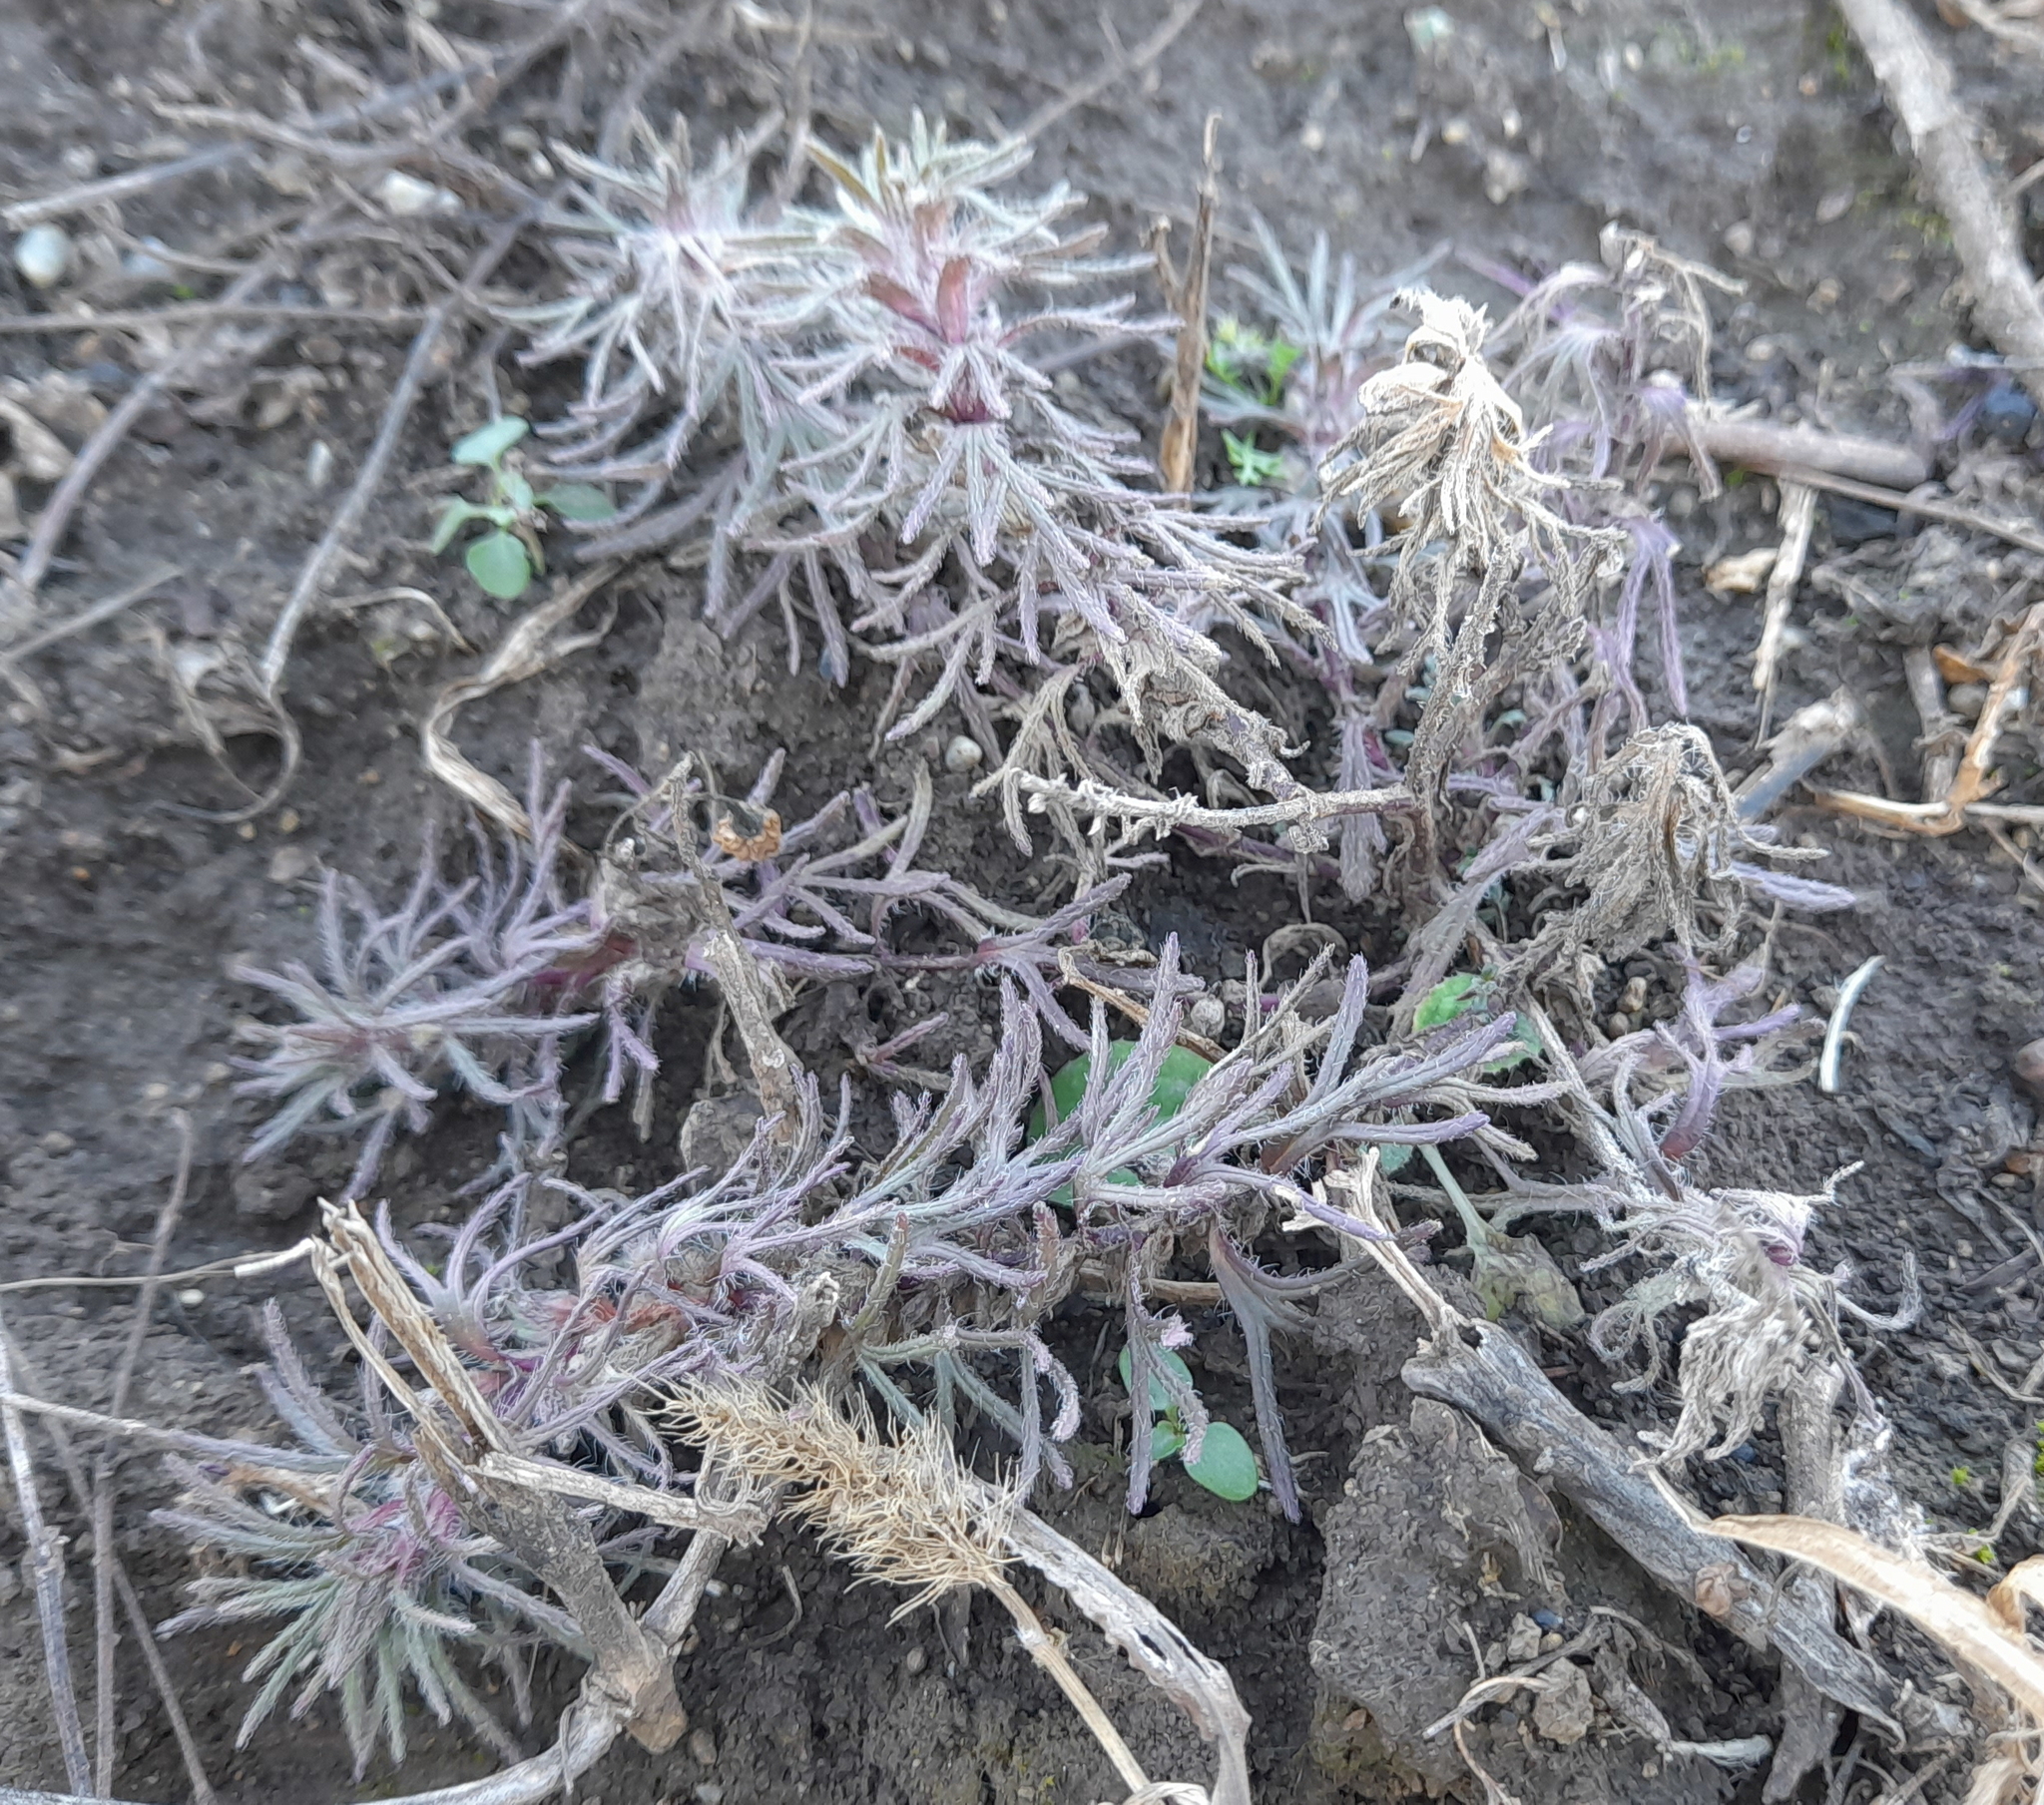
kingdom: Plantae
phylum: Tracheophyta
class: Magnoliopsida
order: Lamiales
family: Lamiaceae
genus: Ajuga
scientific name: Ajuga chamaepitys
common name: Ground-pine
